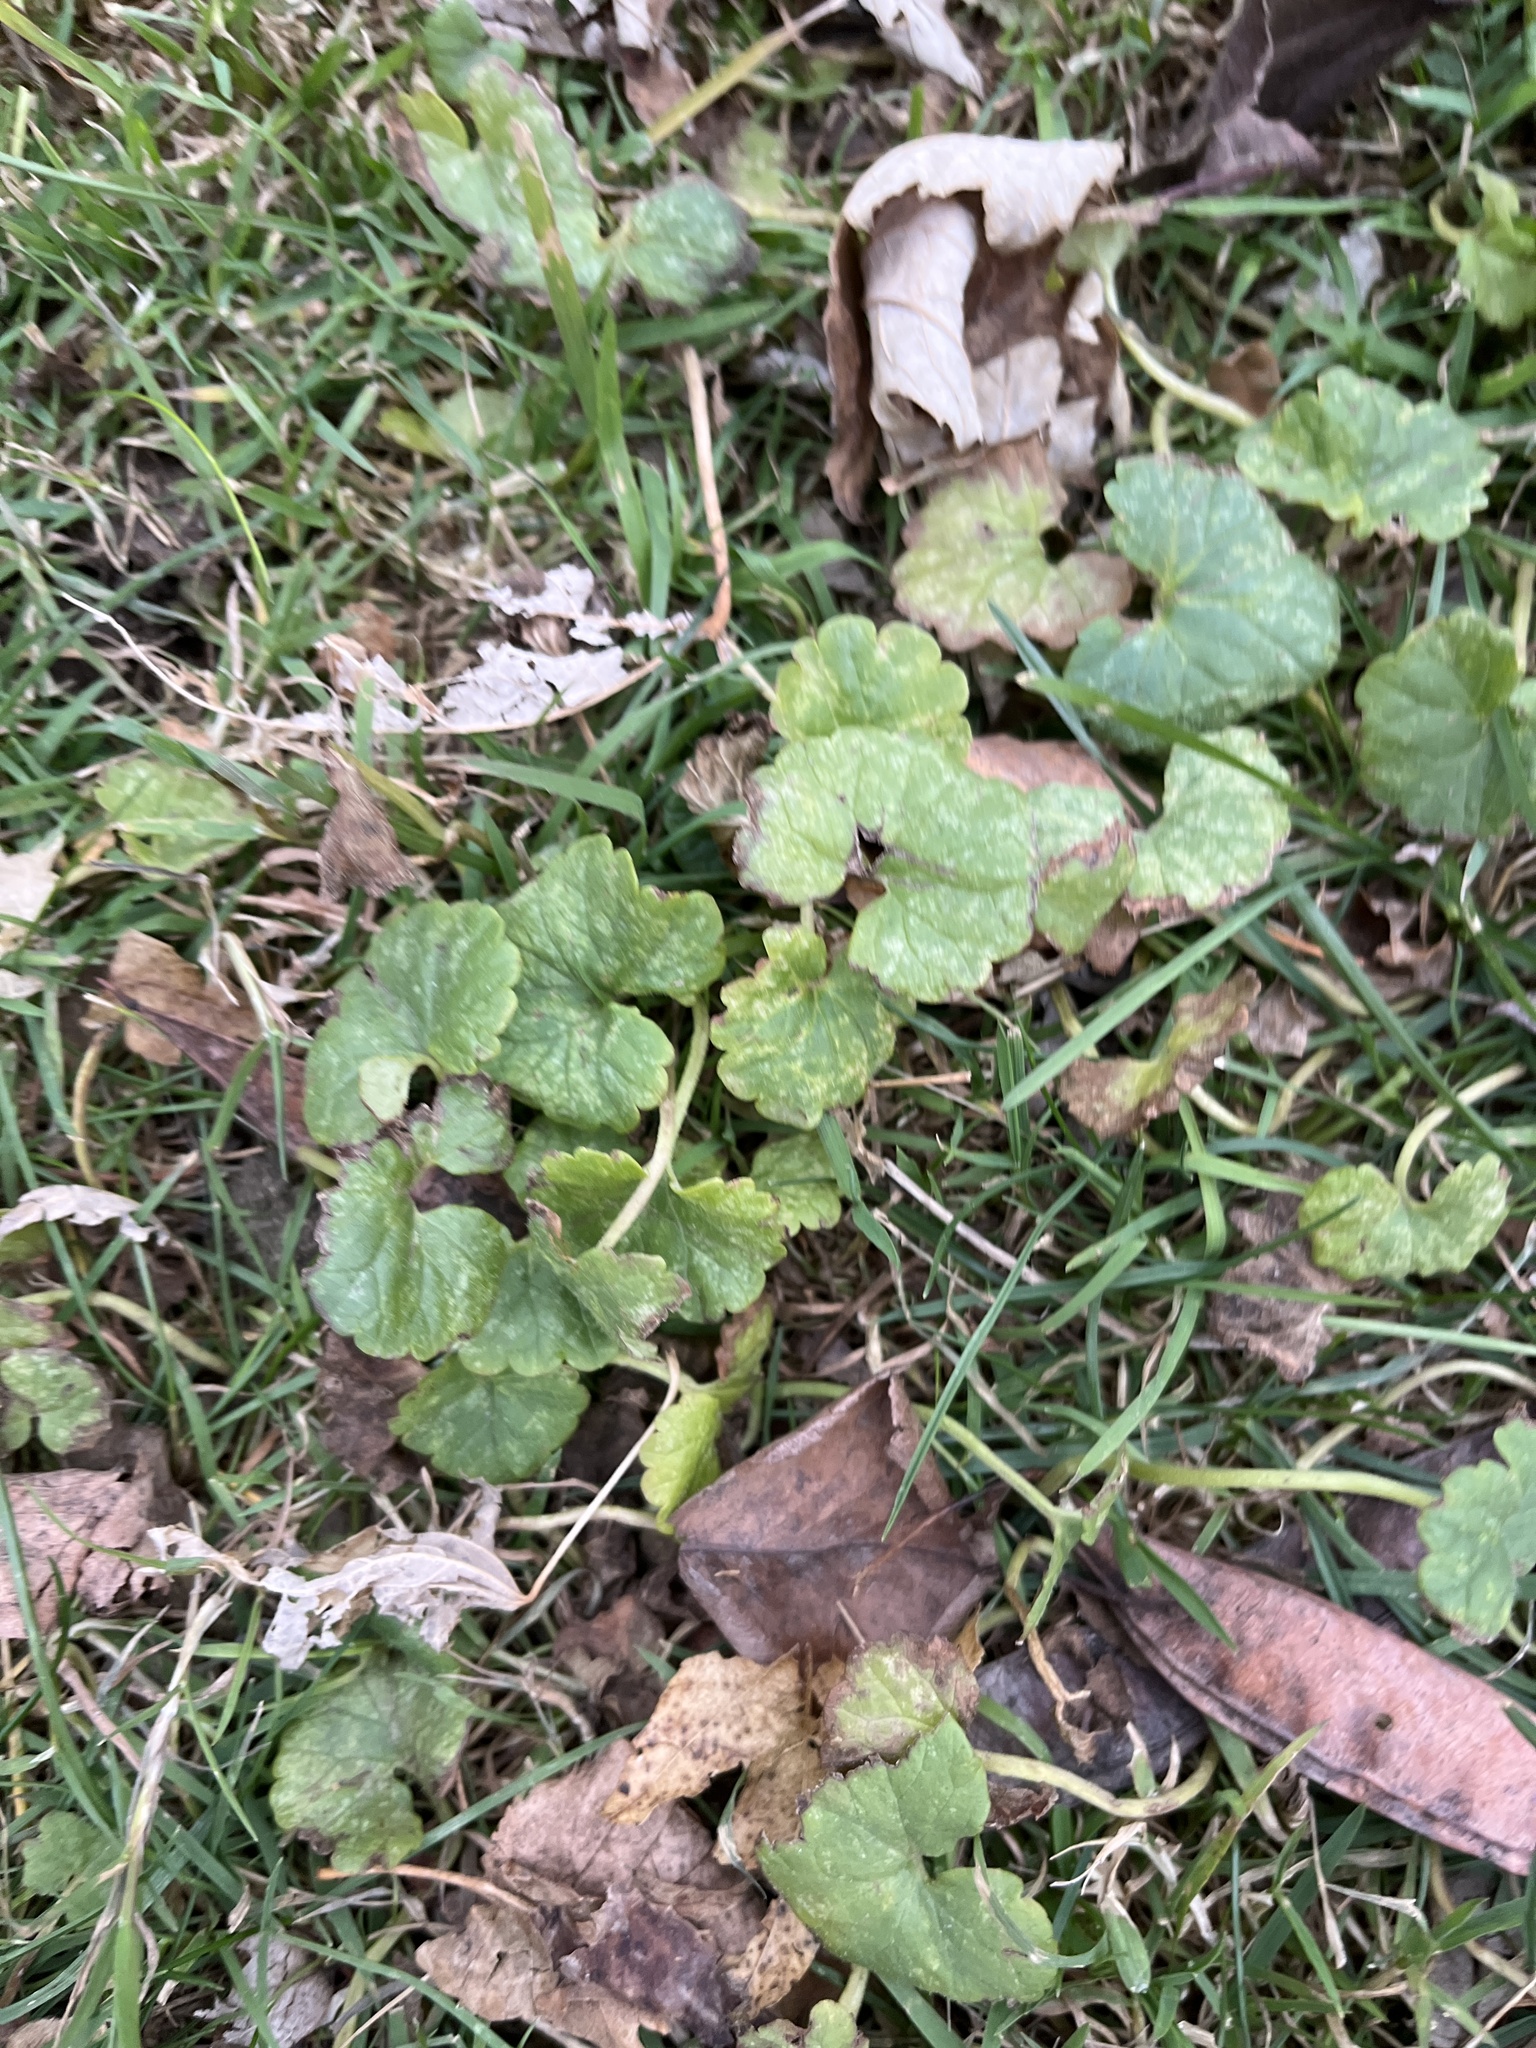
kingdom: Plantae
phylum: Tracheophyta
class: Magnoliopsida
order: Lamiales
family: Lamiaceae
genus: Glechoma
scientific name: Glechoma hederacea
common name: Ground ivy
